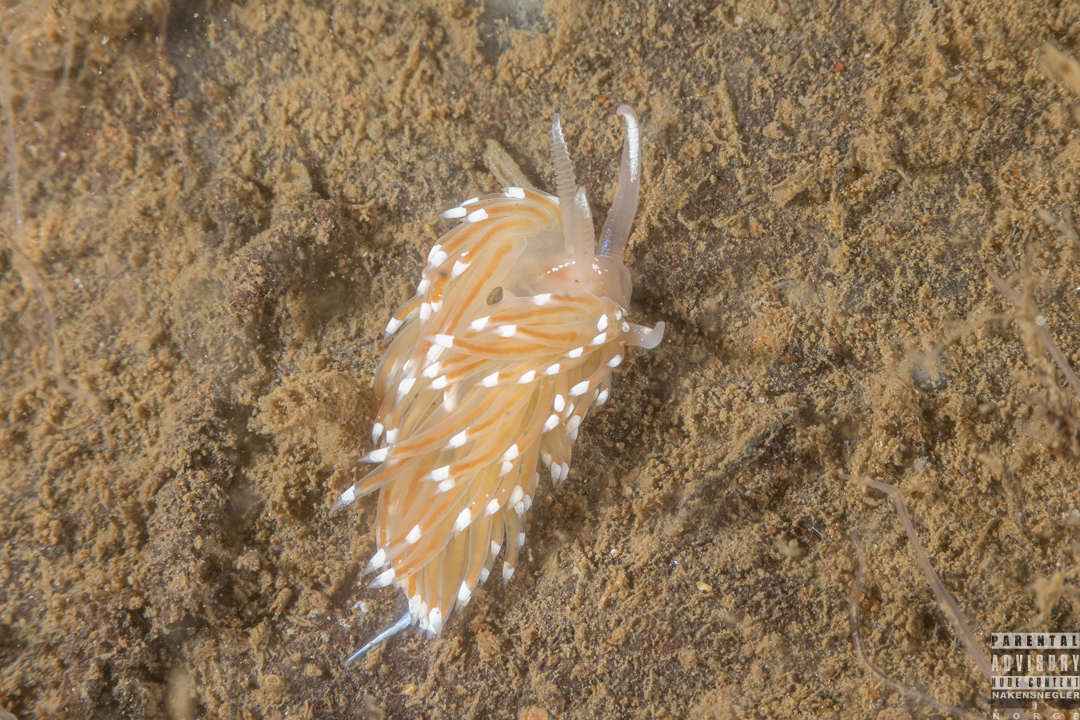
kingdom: Animalia
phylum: Mollusca
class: Gastropoda
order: Nudibranchia
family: Facelinidae
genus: Facelina
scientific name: Facelina bostoniensis
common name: Boston facelina
